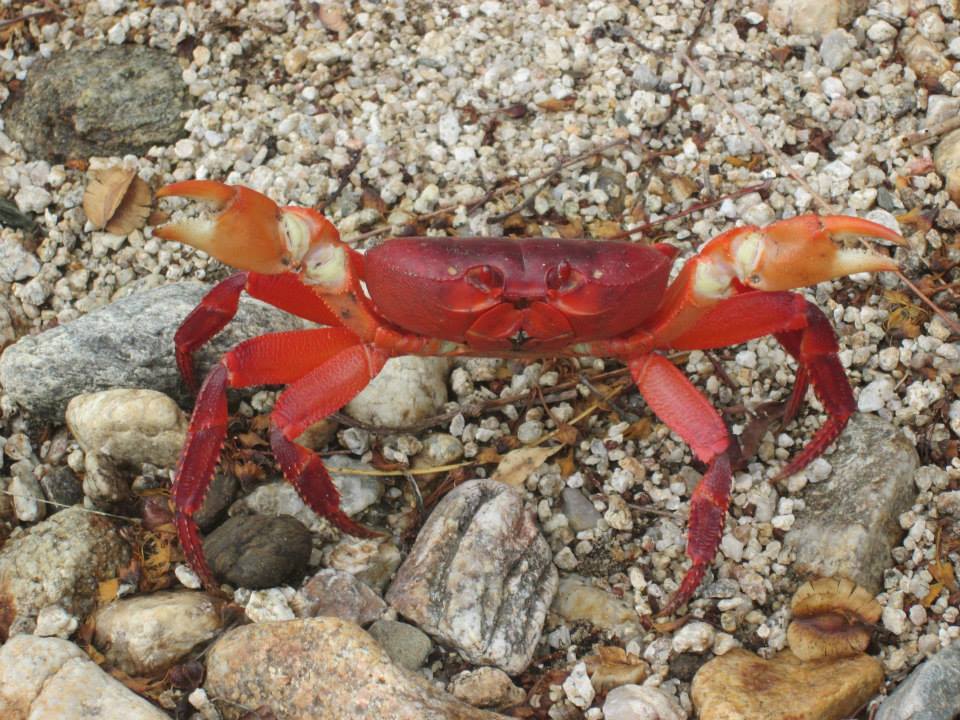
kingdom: Animalia
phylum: Arthropoda
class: Malacostraca
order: Decapoda
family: Gecarcinidae
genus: Johngarthia
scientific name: Johngarthia planata
